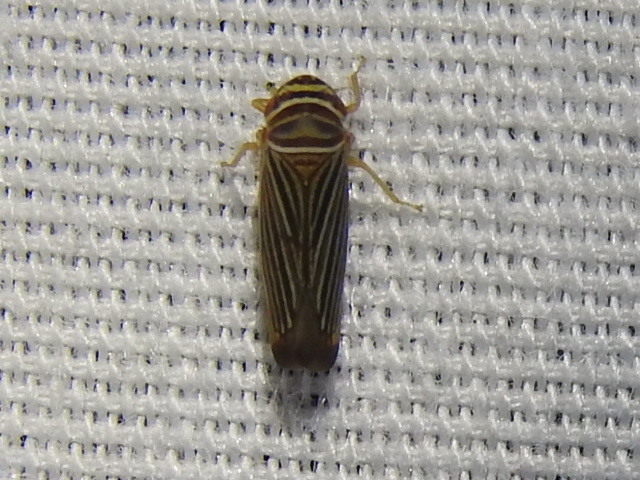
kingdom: Animalia
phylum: Arthropoda
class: Insecta
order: Hemiptera
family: Cicadellidae
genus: Tylozygus
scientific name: Tylozygus bifidus
